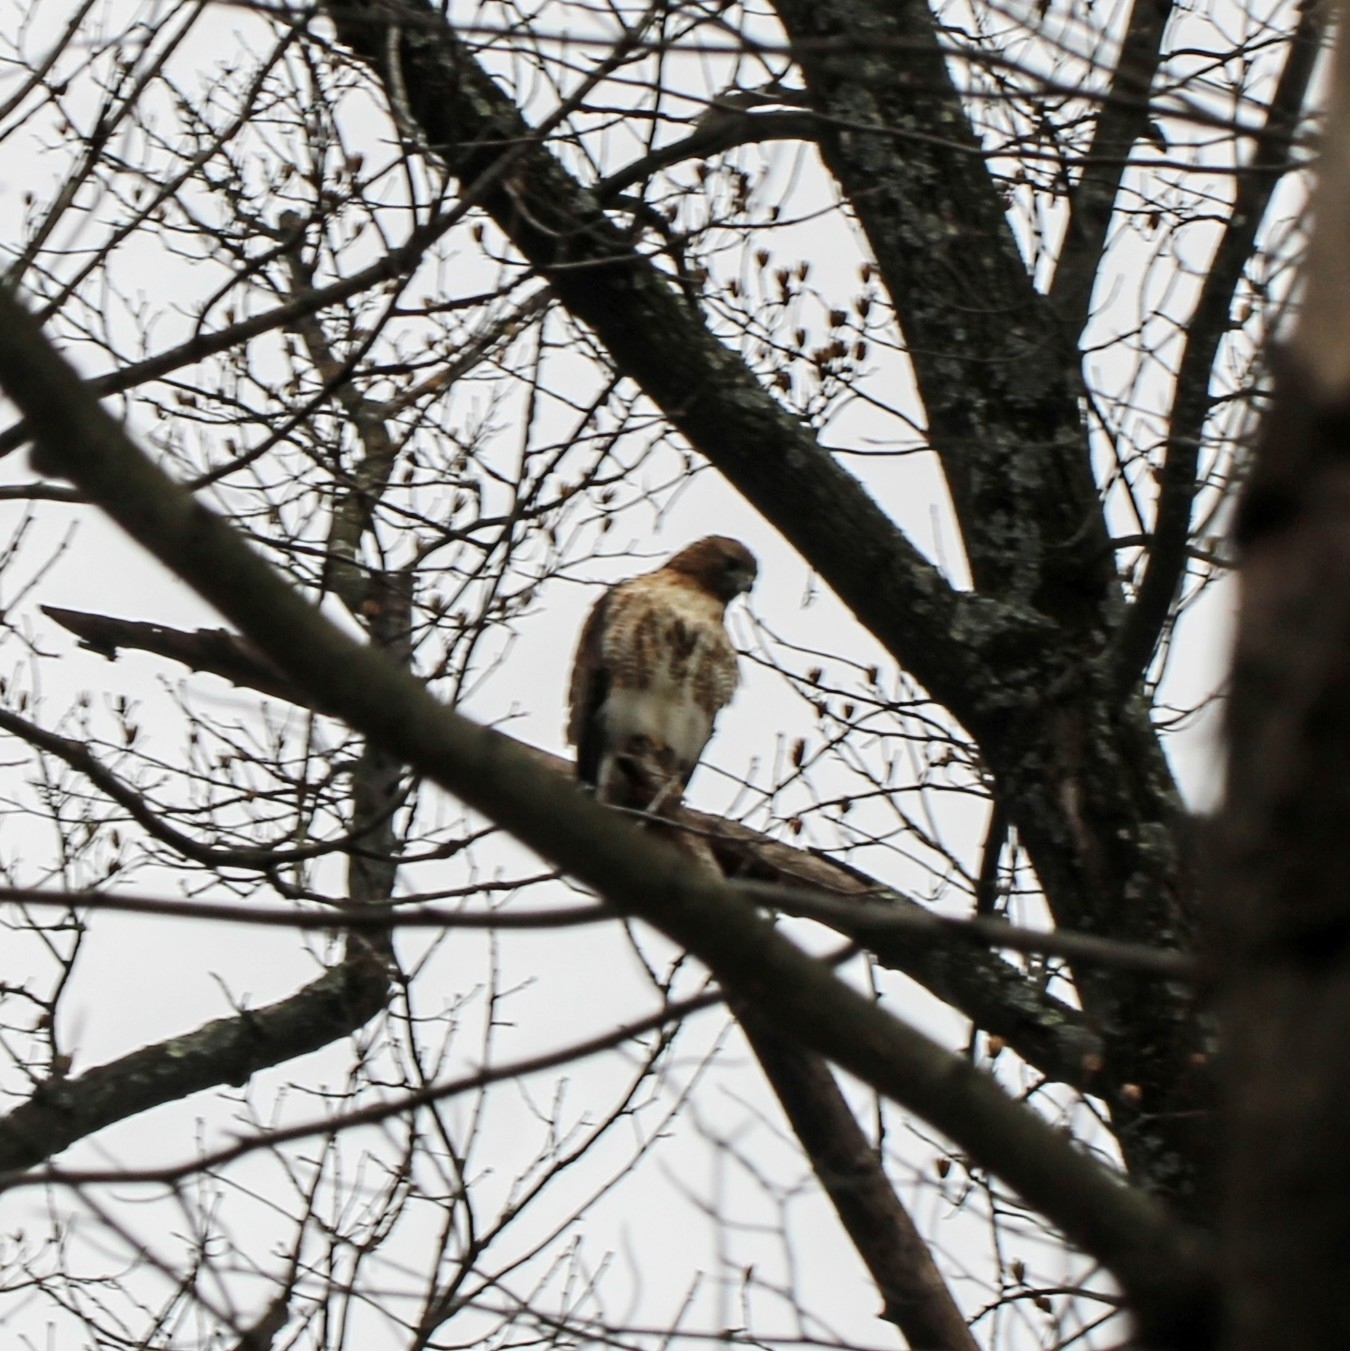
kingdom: Animalia
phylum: Chordata
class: Aves
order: Accipitriformes
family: Accipitridae
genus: Buteo
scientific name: Buteo jamaicensis
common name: Red-tailed hawk
